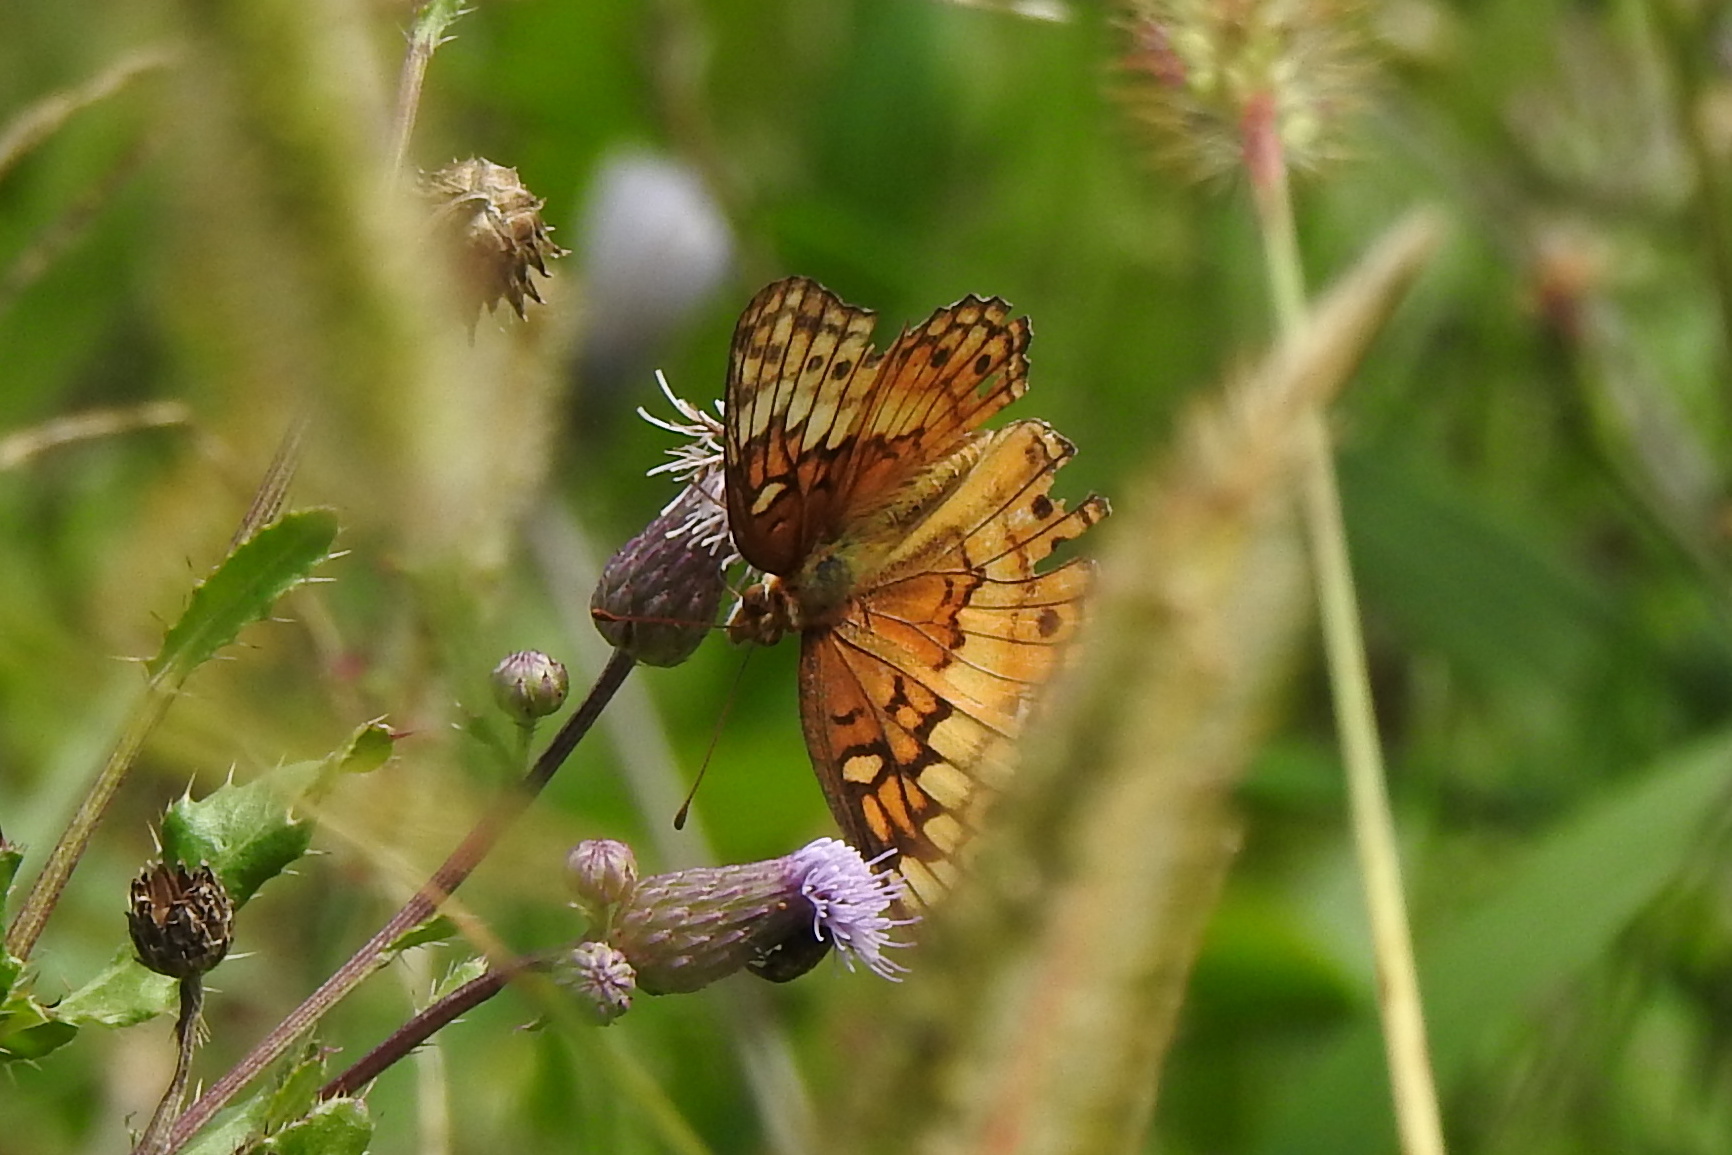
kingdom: Animalia
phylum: Arthropoda
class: Insecta
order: Lepidoptera
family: Nymphalidae
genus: Euptoieta
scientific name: Euptoieta claudia
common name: Variegated fritillary
